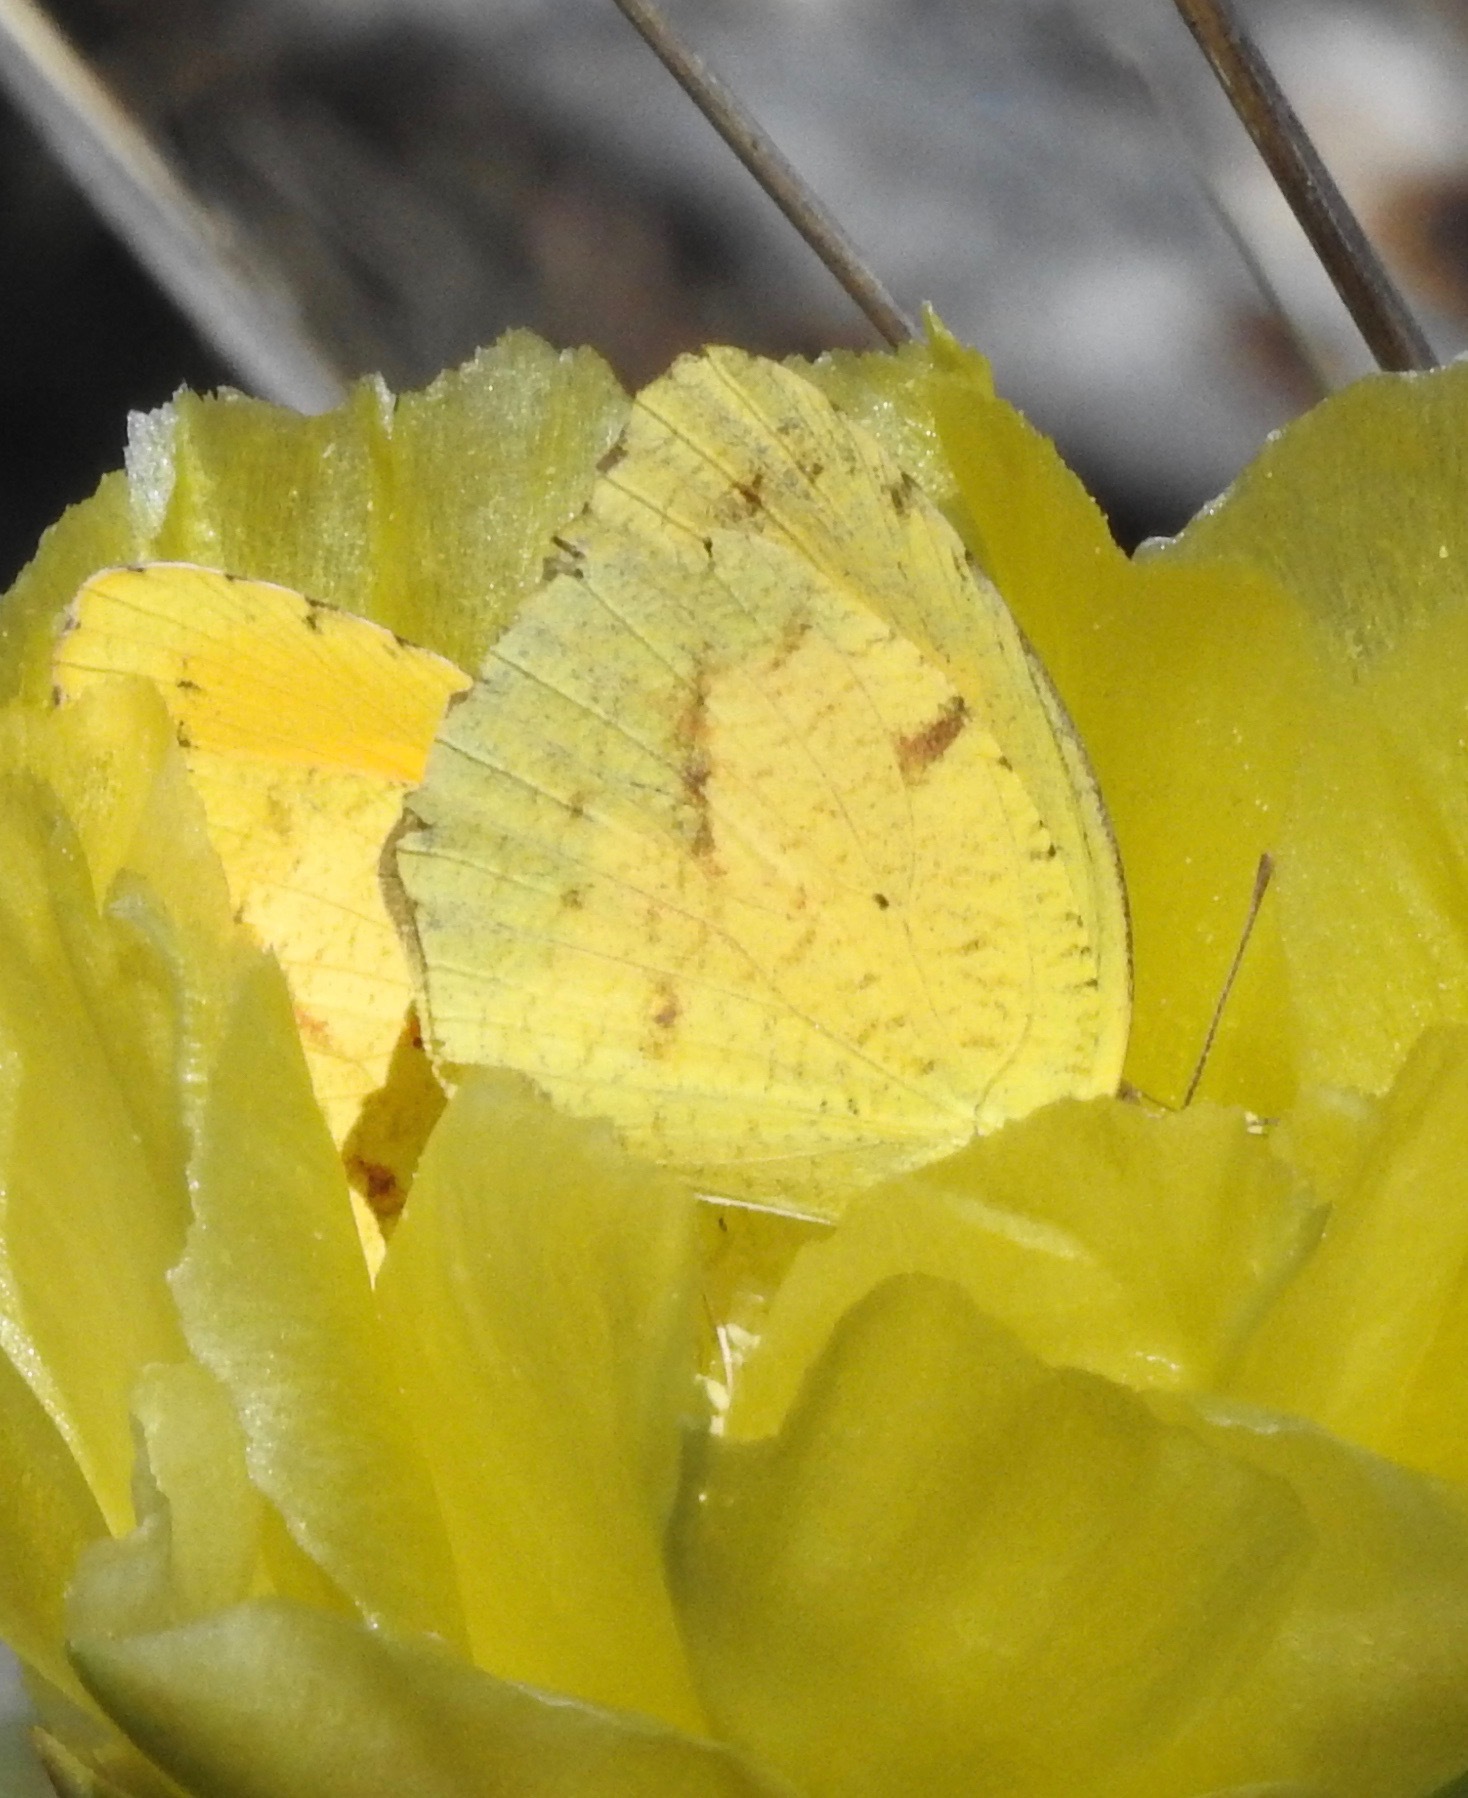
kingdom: Animalia
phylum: Arthropoda
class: Insecta
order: Lepidoptera
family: Pieridae
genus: Abaeis
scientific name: Abaeis nicippe
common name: Sleepy orange
